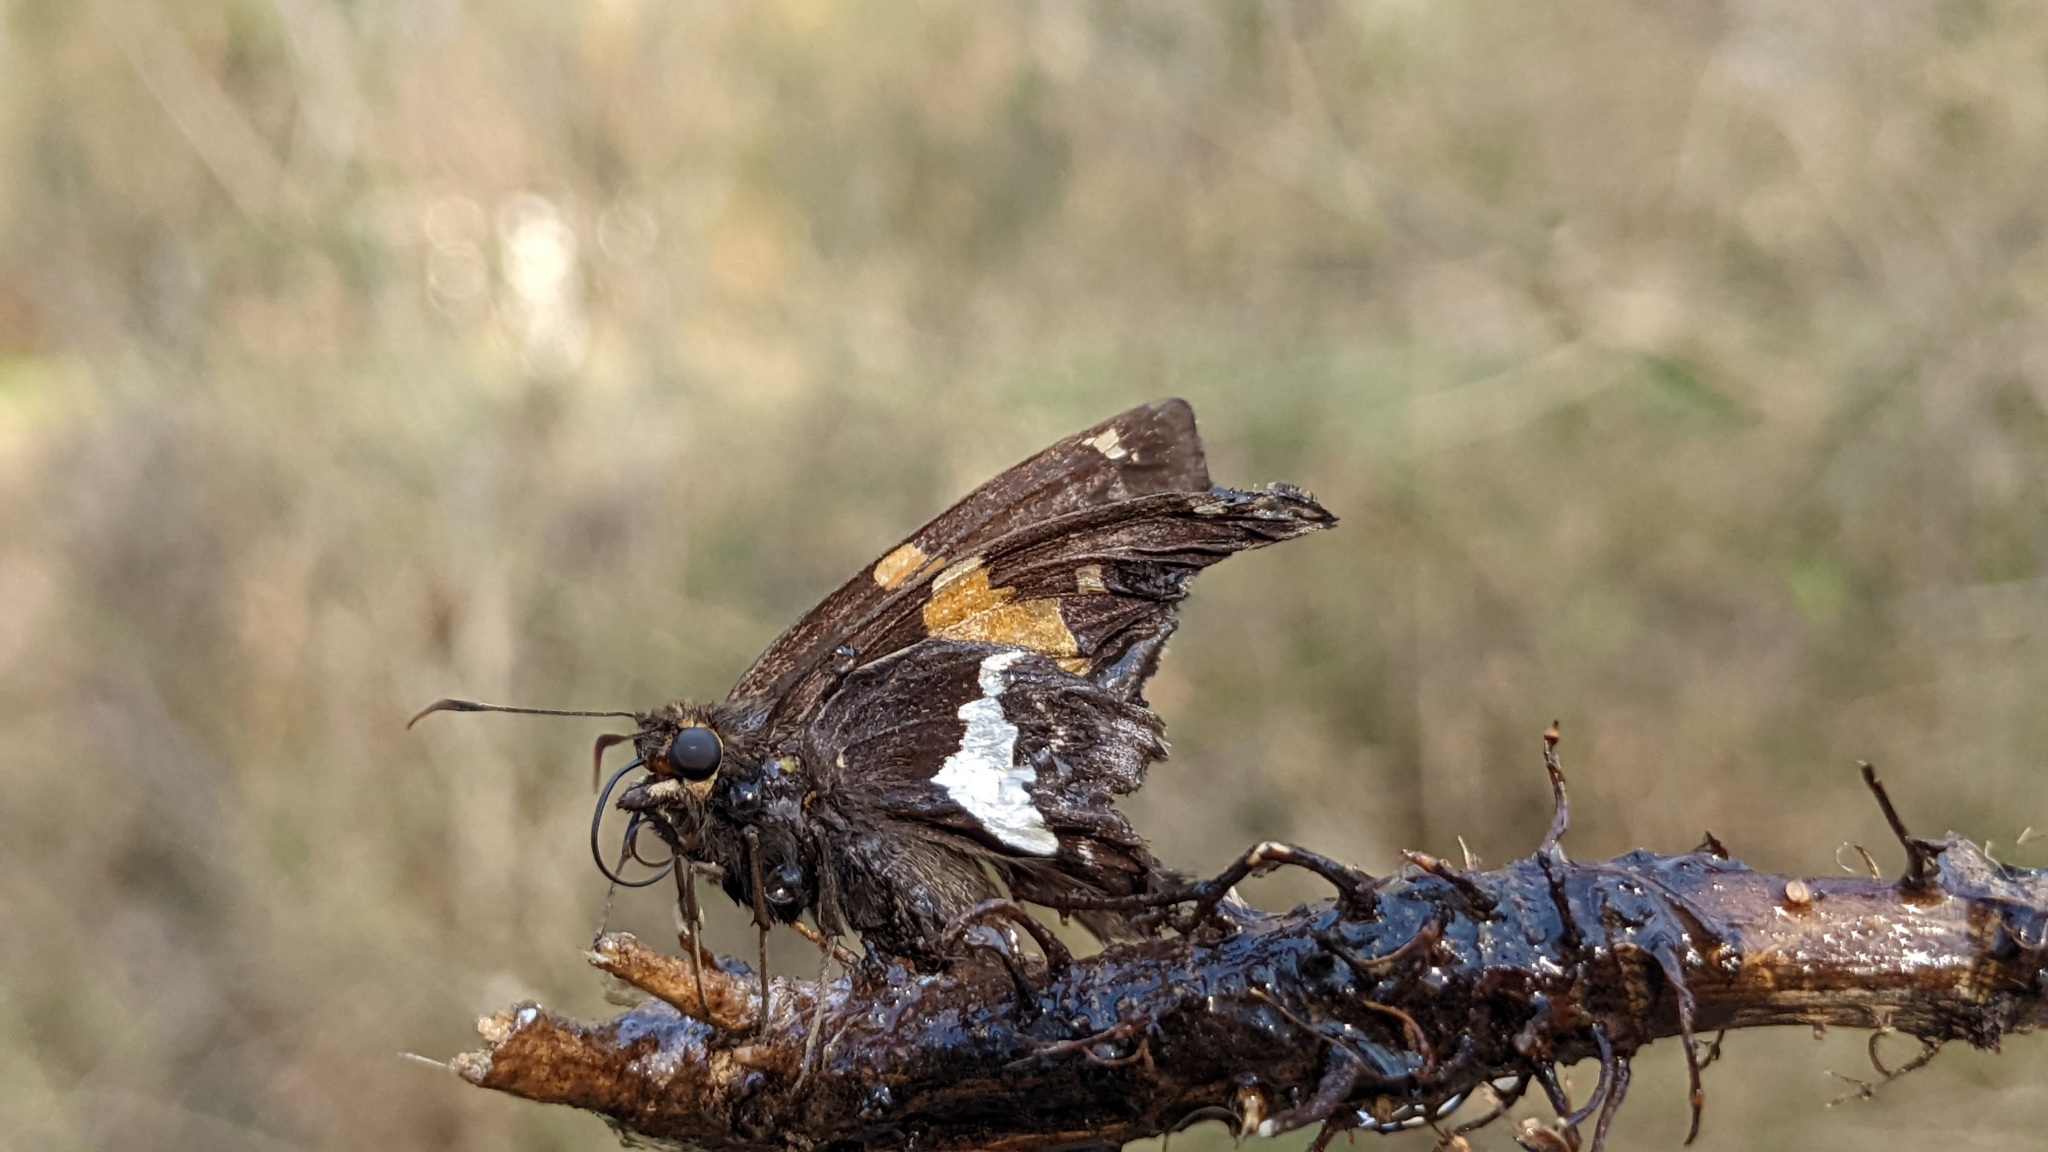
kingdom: Animalia
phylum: Arthropoda
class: Insecta
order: Lepidoptera
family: Hesperiidae
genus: Epargyreus
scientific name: Epargyreus clarus
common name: Silver-spotted skipper
